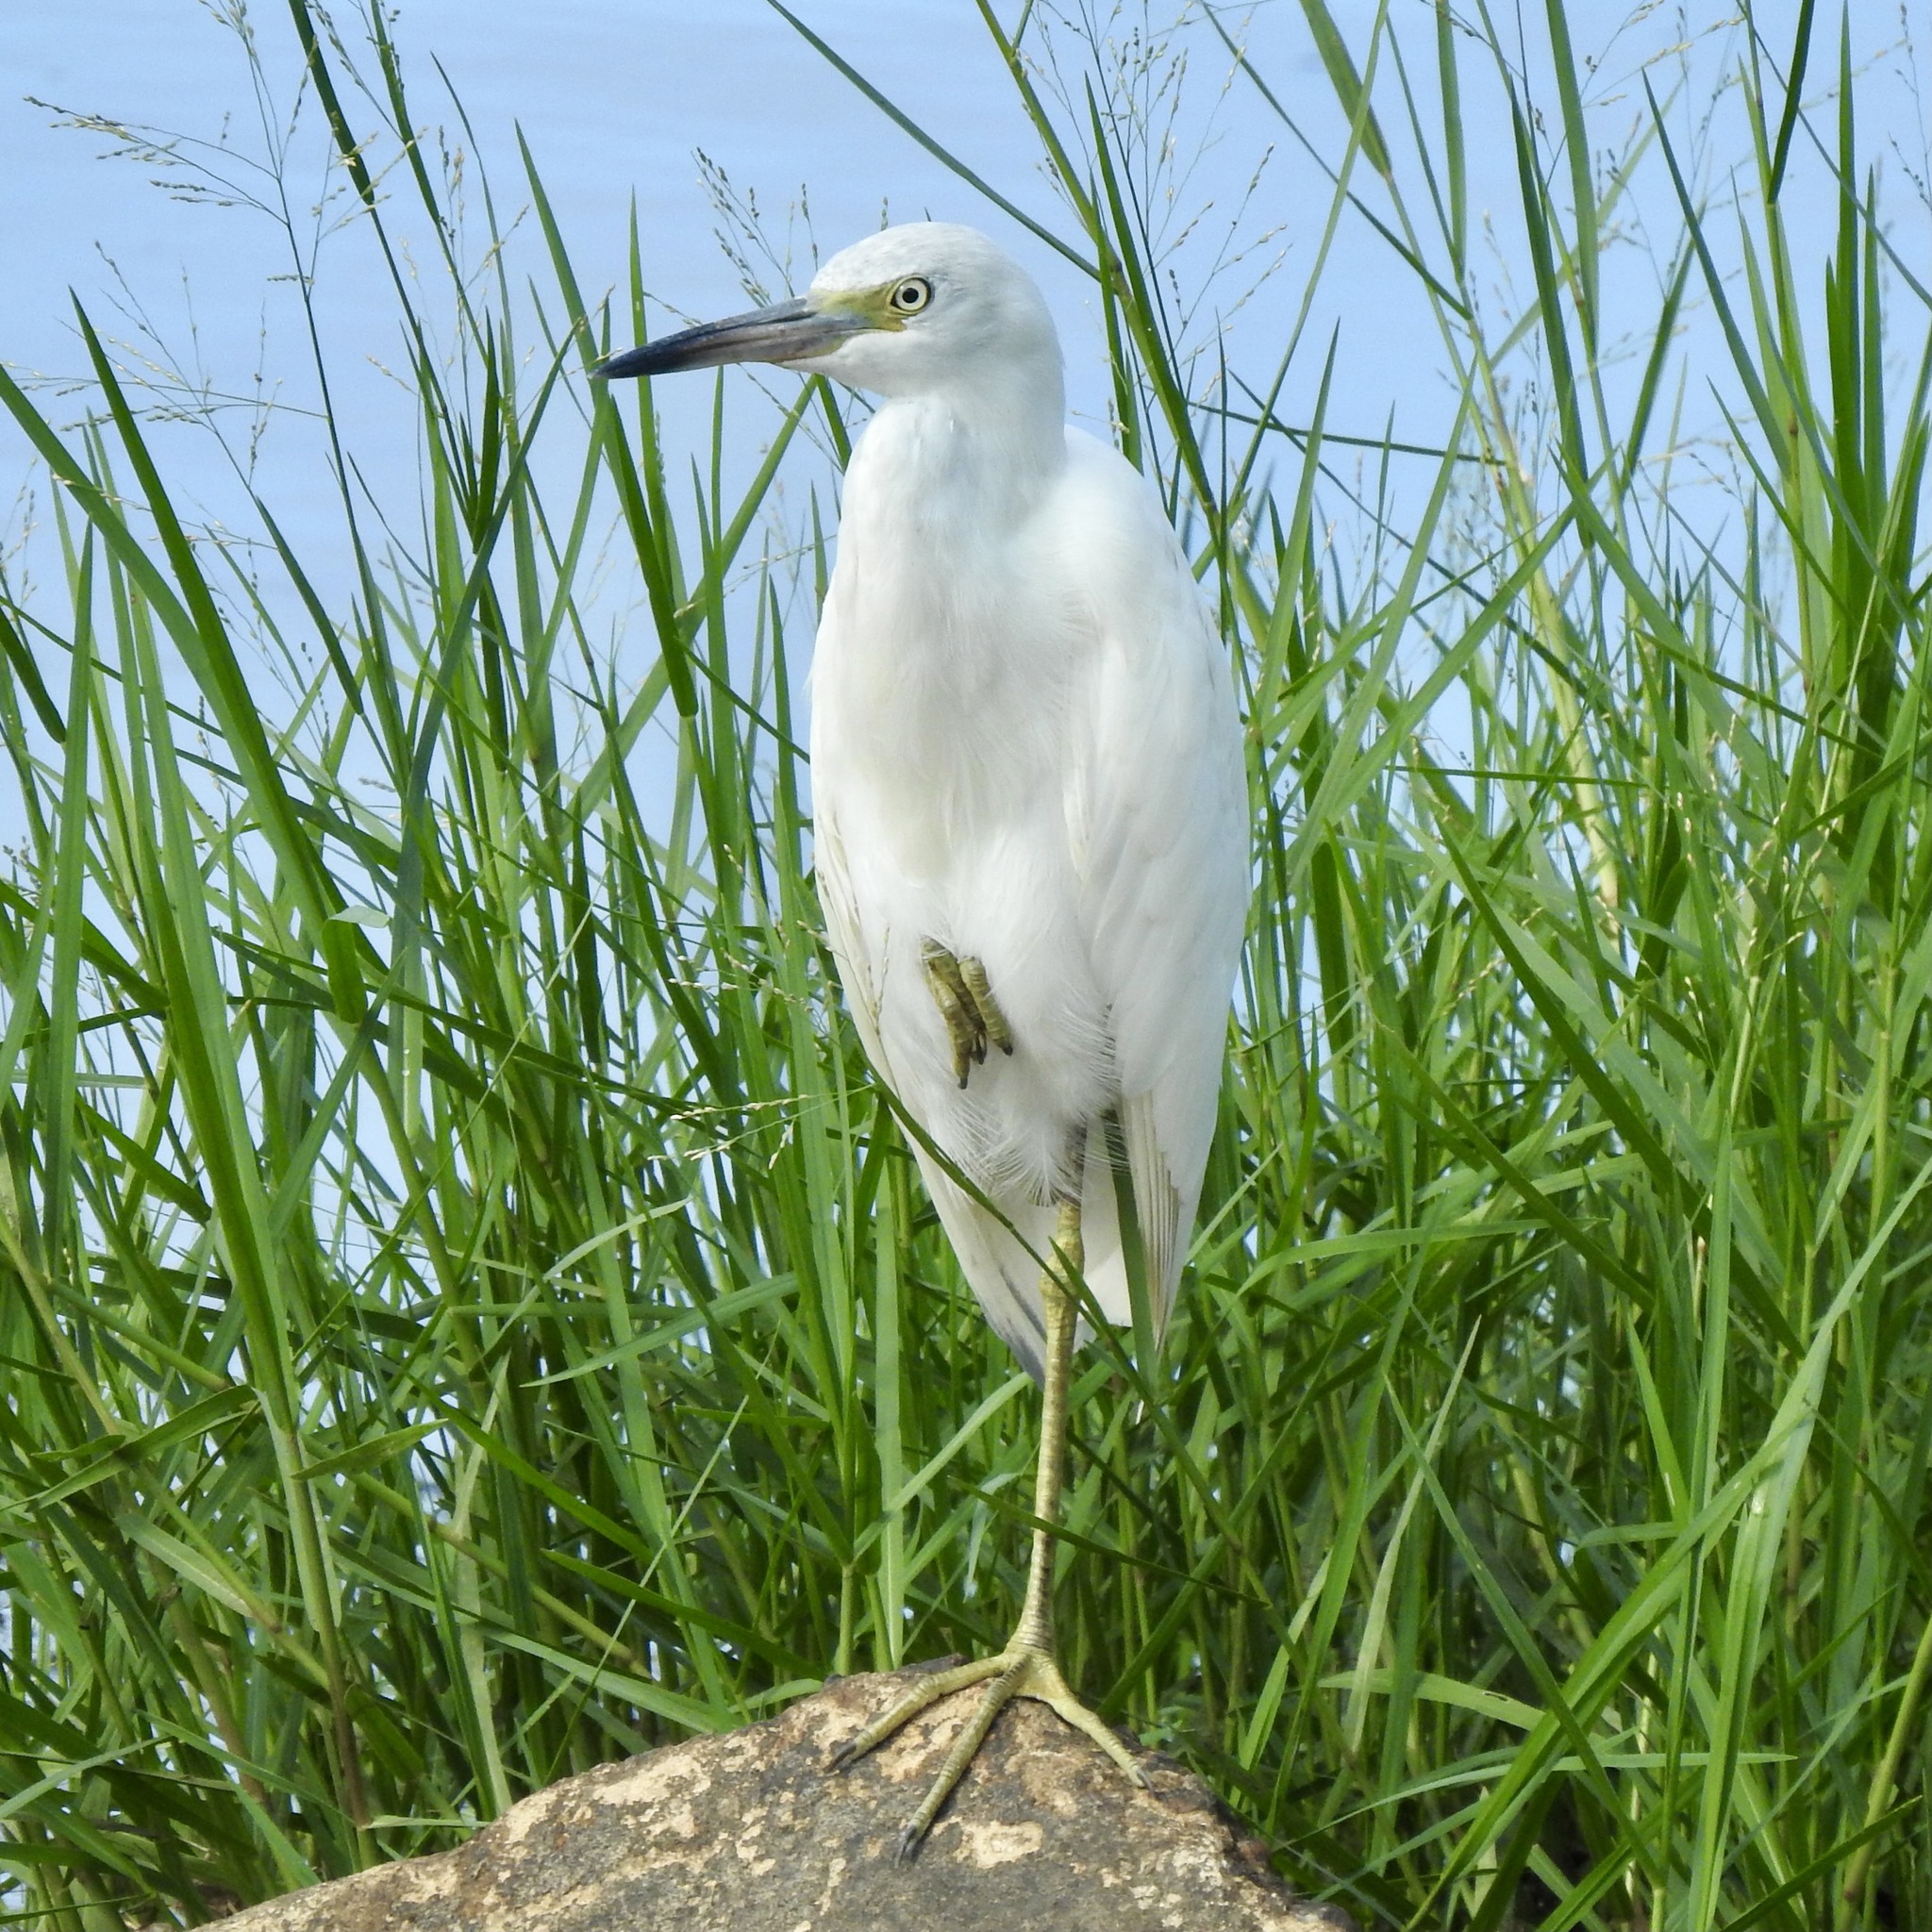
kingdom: Animalia
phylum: Chordata
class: Aves
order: Pelecaniformes
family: Ardeidae
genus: Egretta
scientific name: Egretta caerulea
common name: Little blue heron
